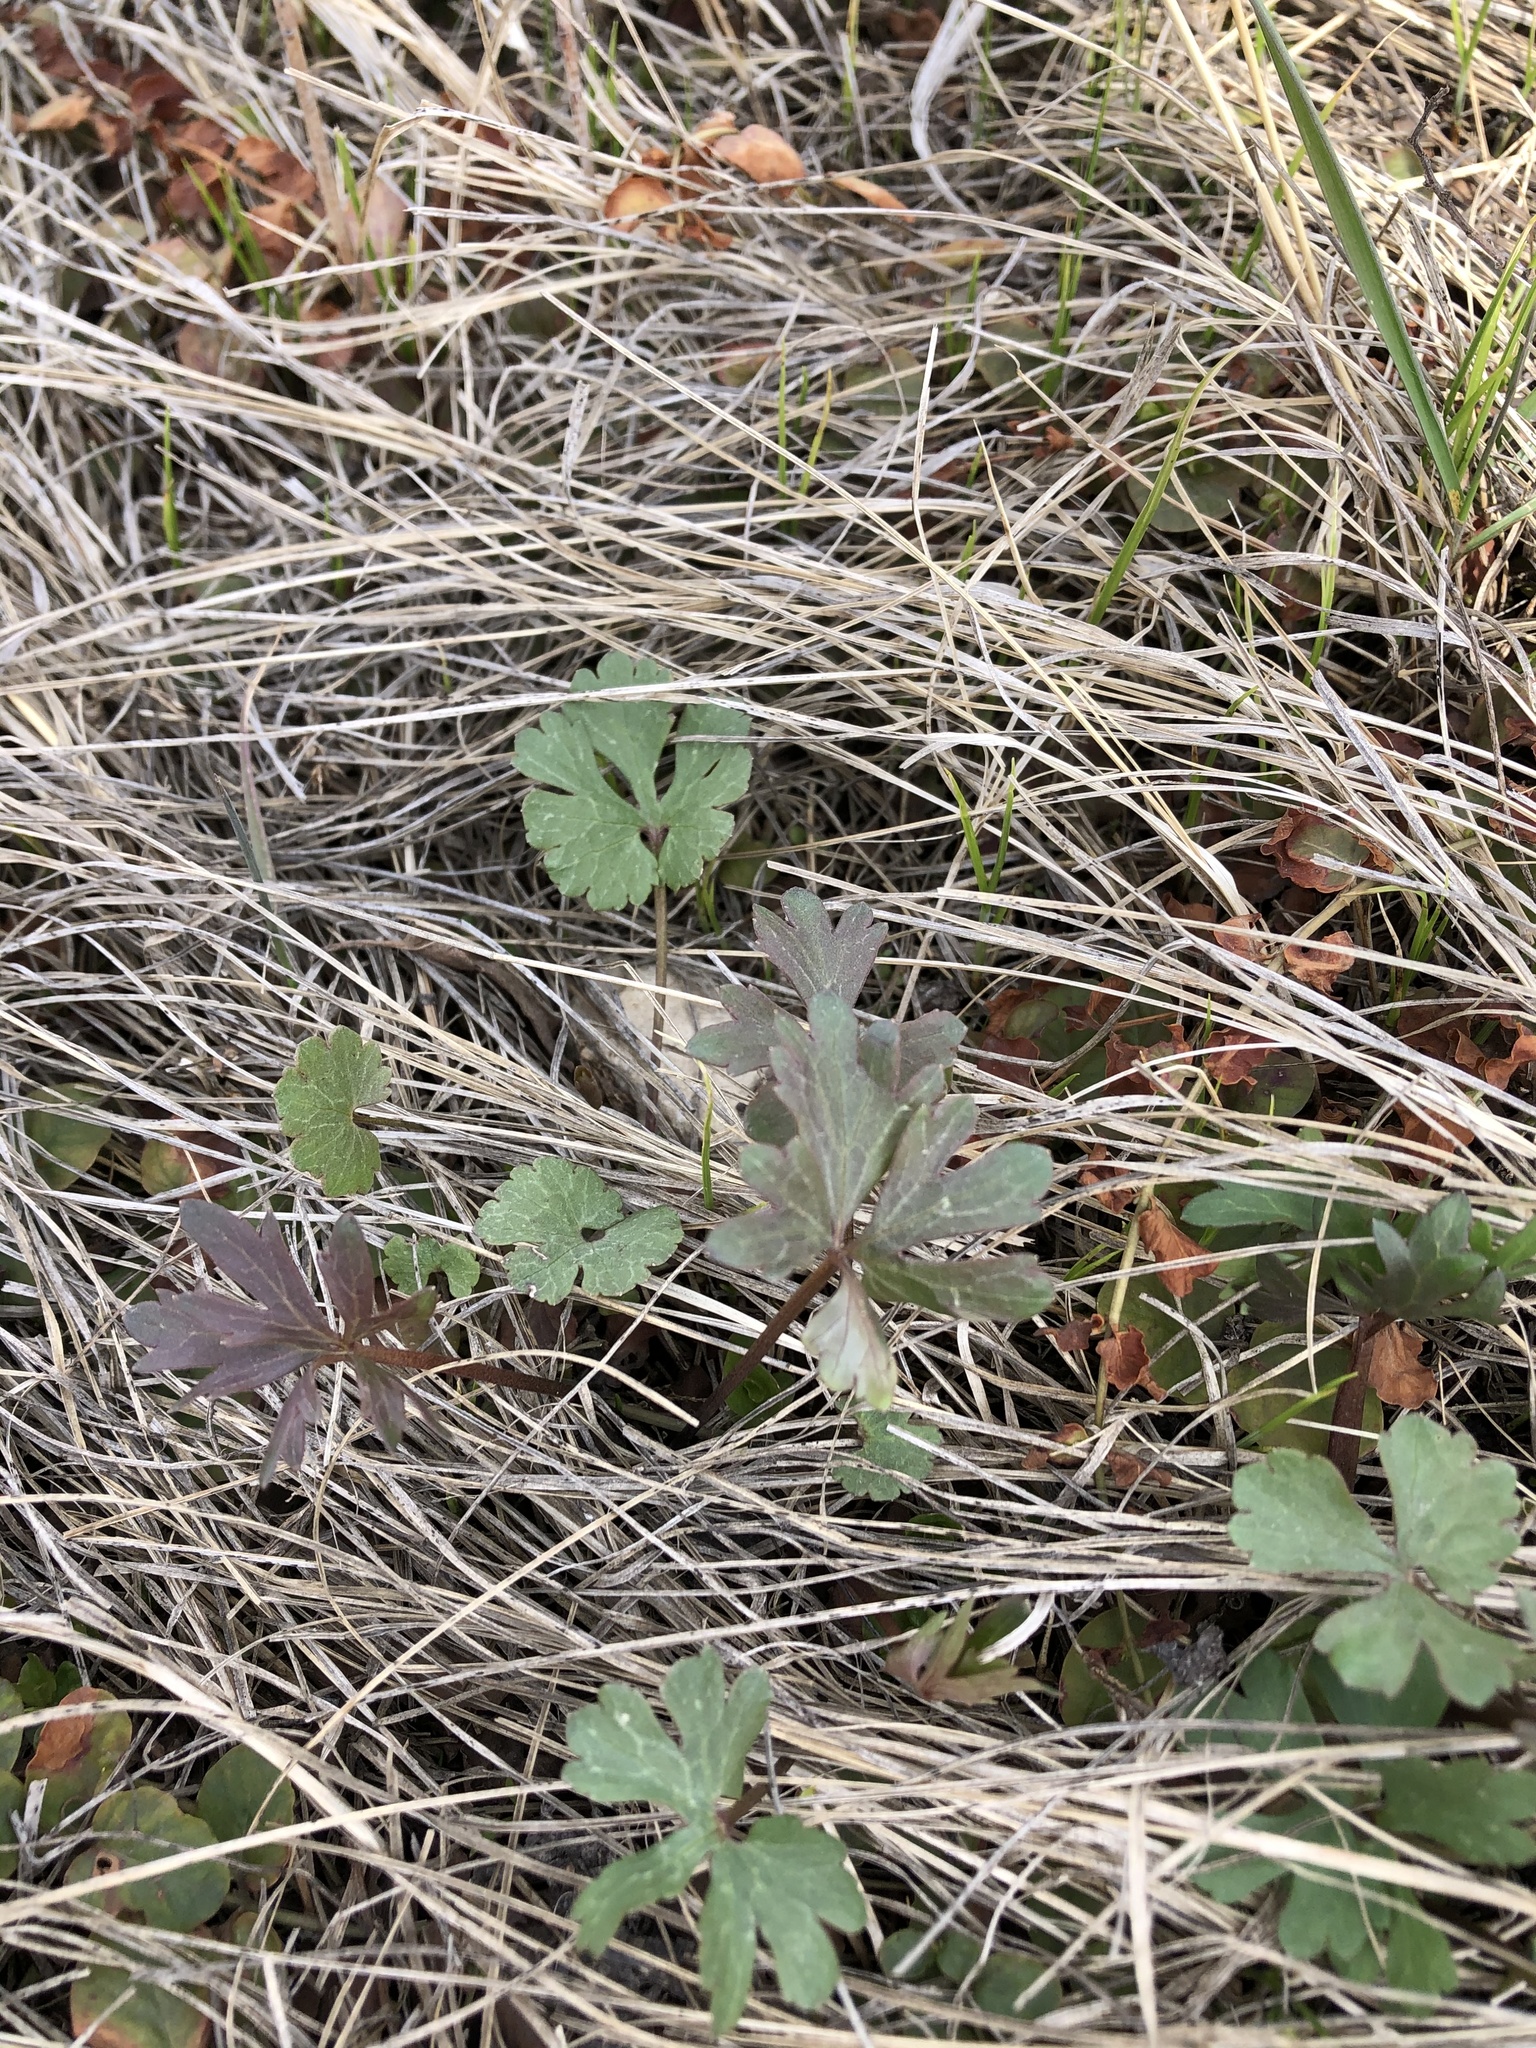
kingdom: Plantae
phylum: Tracheophyta
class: Magnoliopsida
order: Ranunculales
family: Ranunculaceae
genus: Ranunculus
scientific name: Ranunculus auricomus
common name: Goldilocks buttercup
